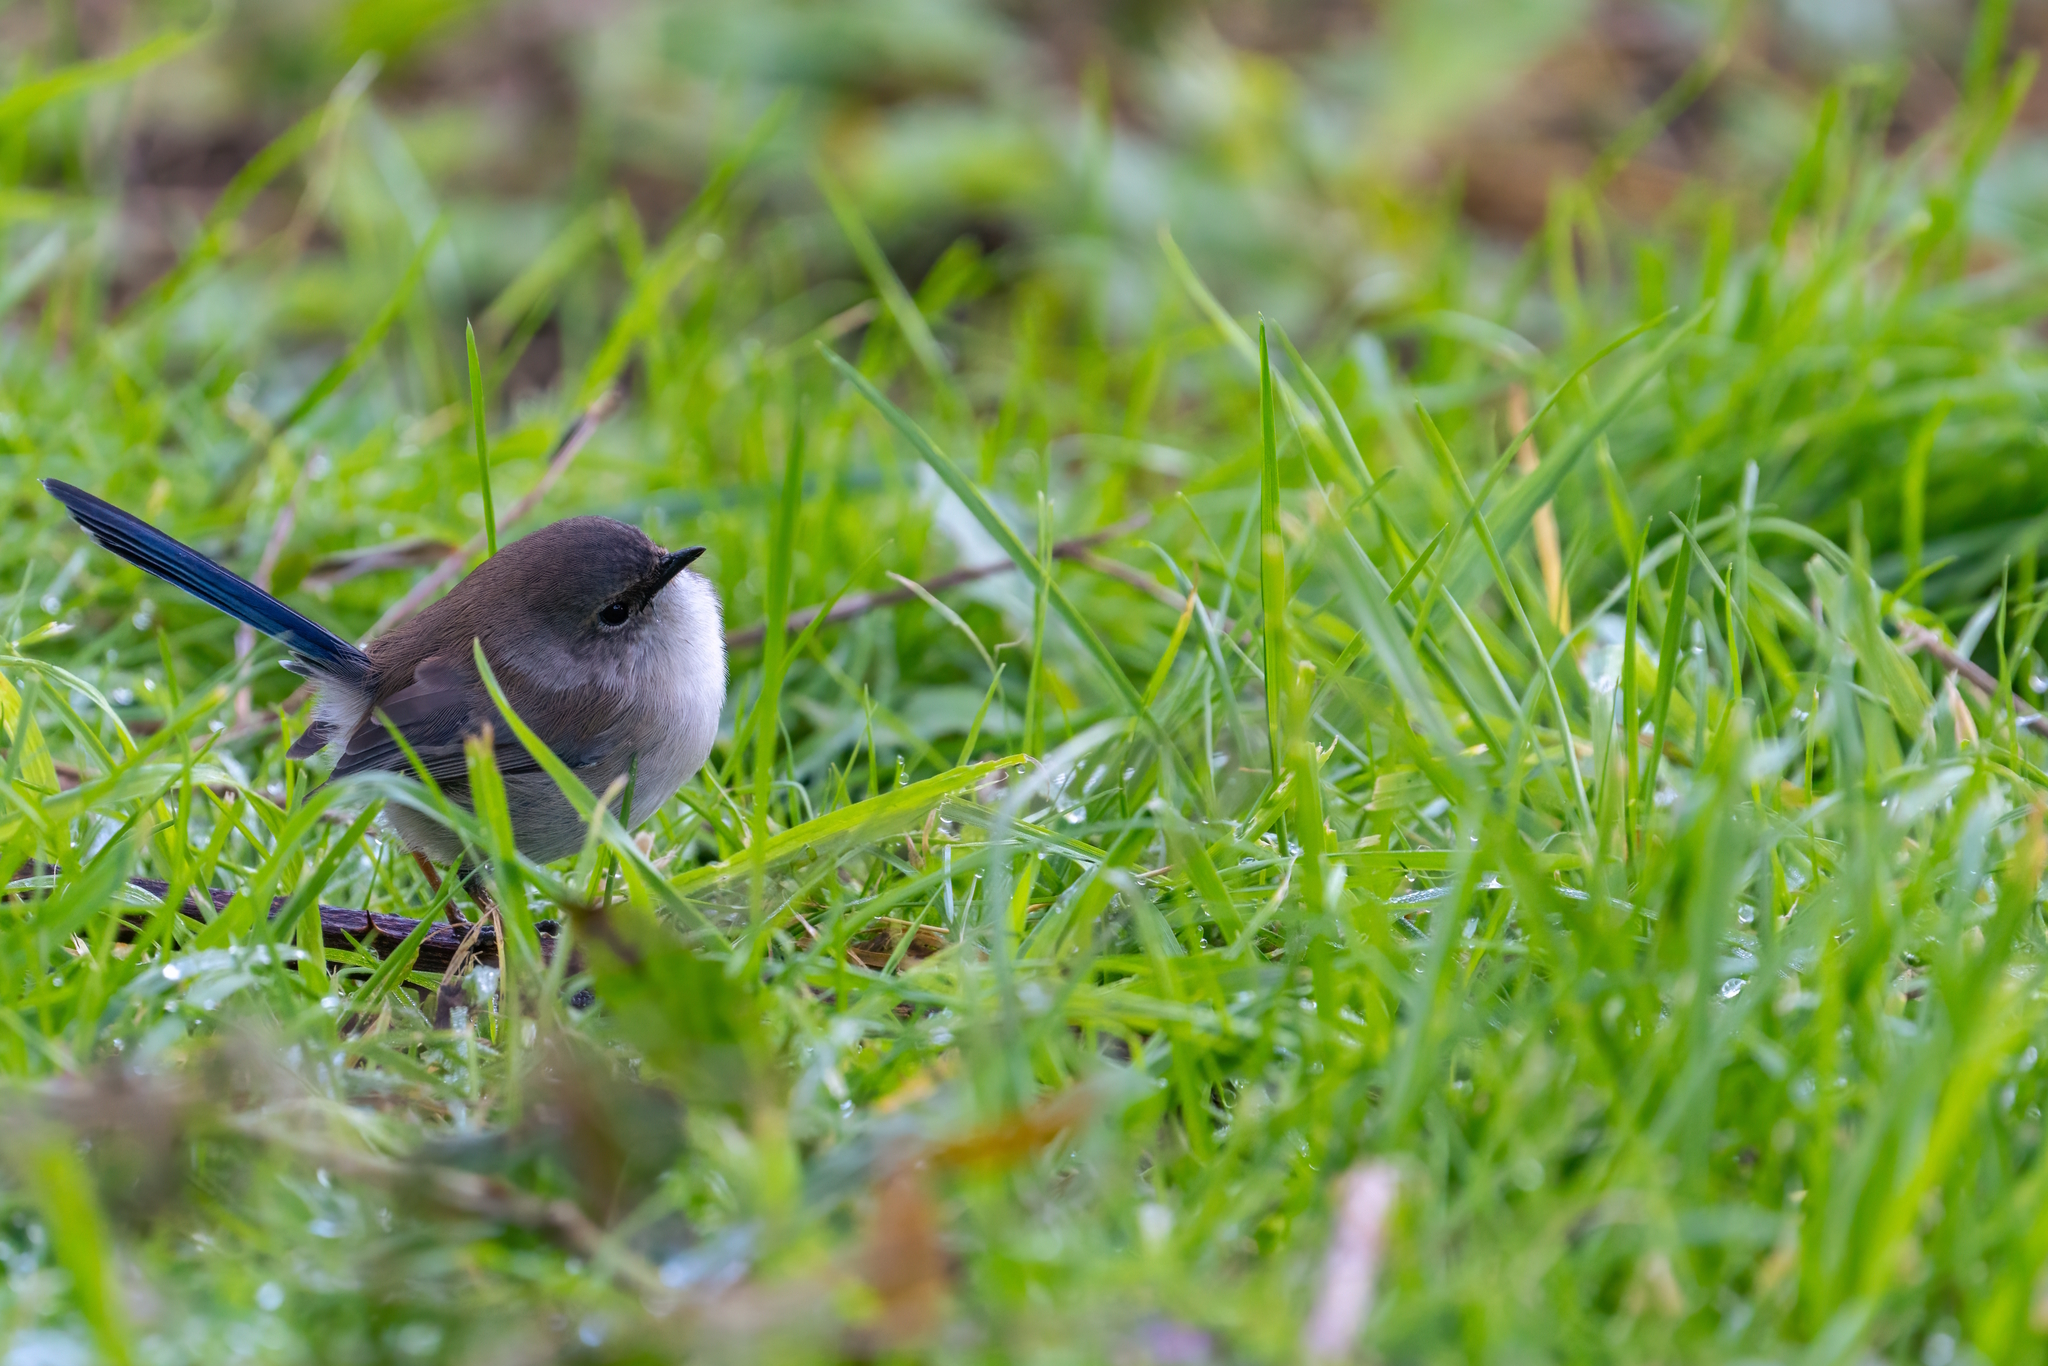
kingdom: Animalia
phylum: Chordata
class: Aves
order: Passeriformes
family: Maluridae
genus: Malurus
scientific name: Malurus cyaneus
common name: Superb fairywren
